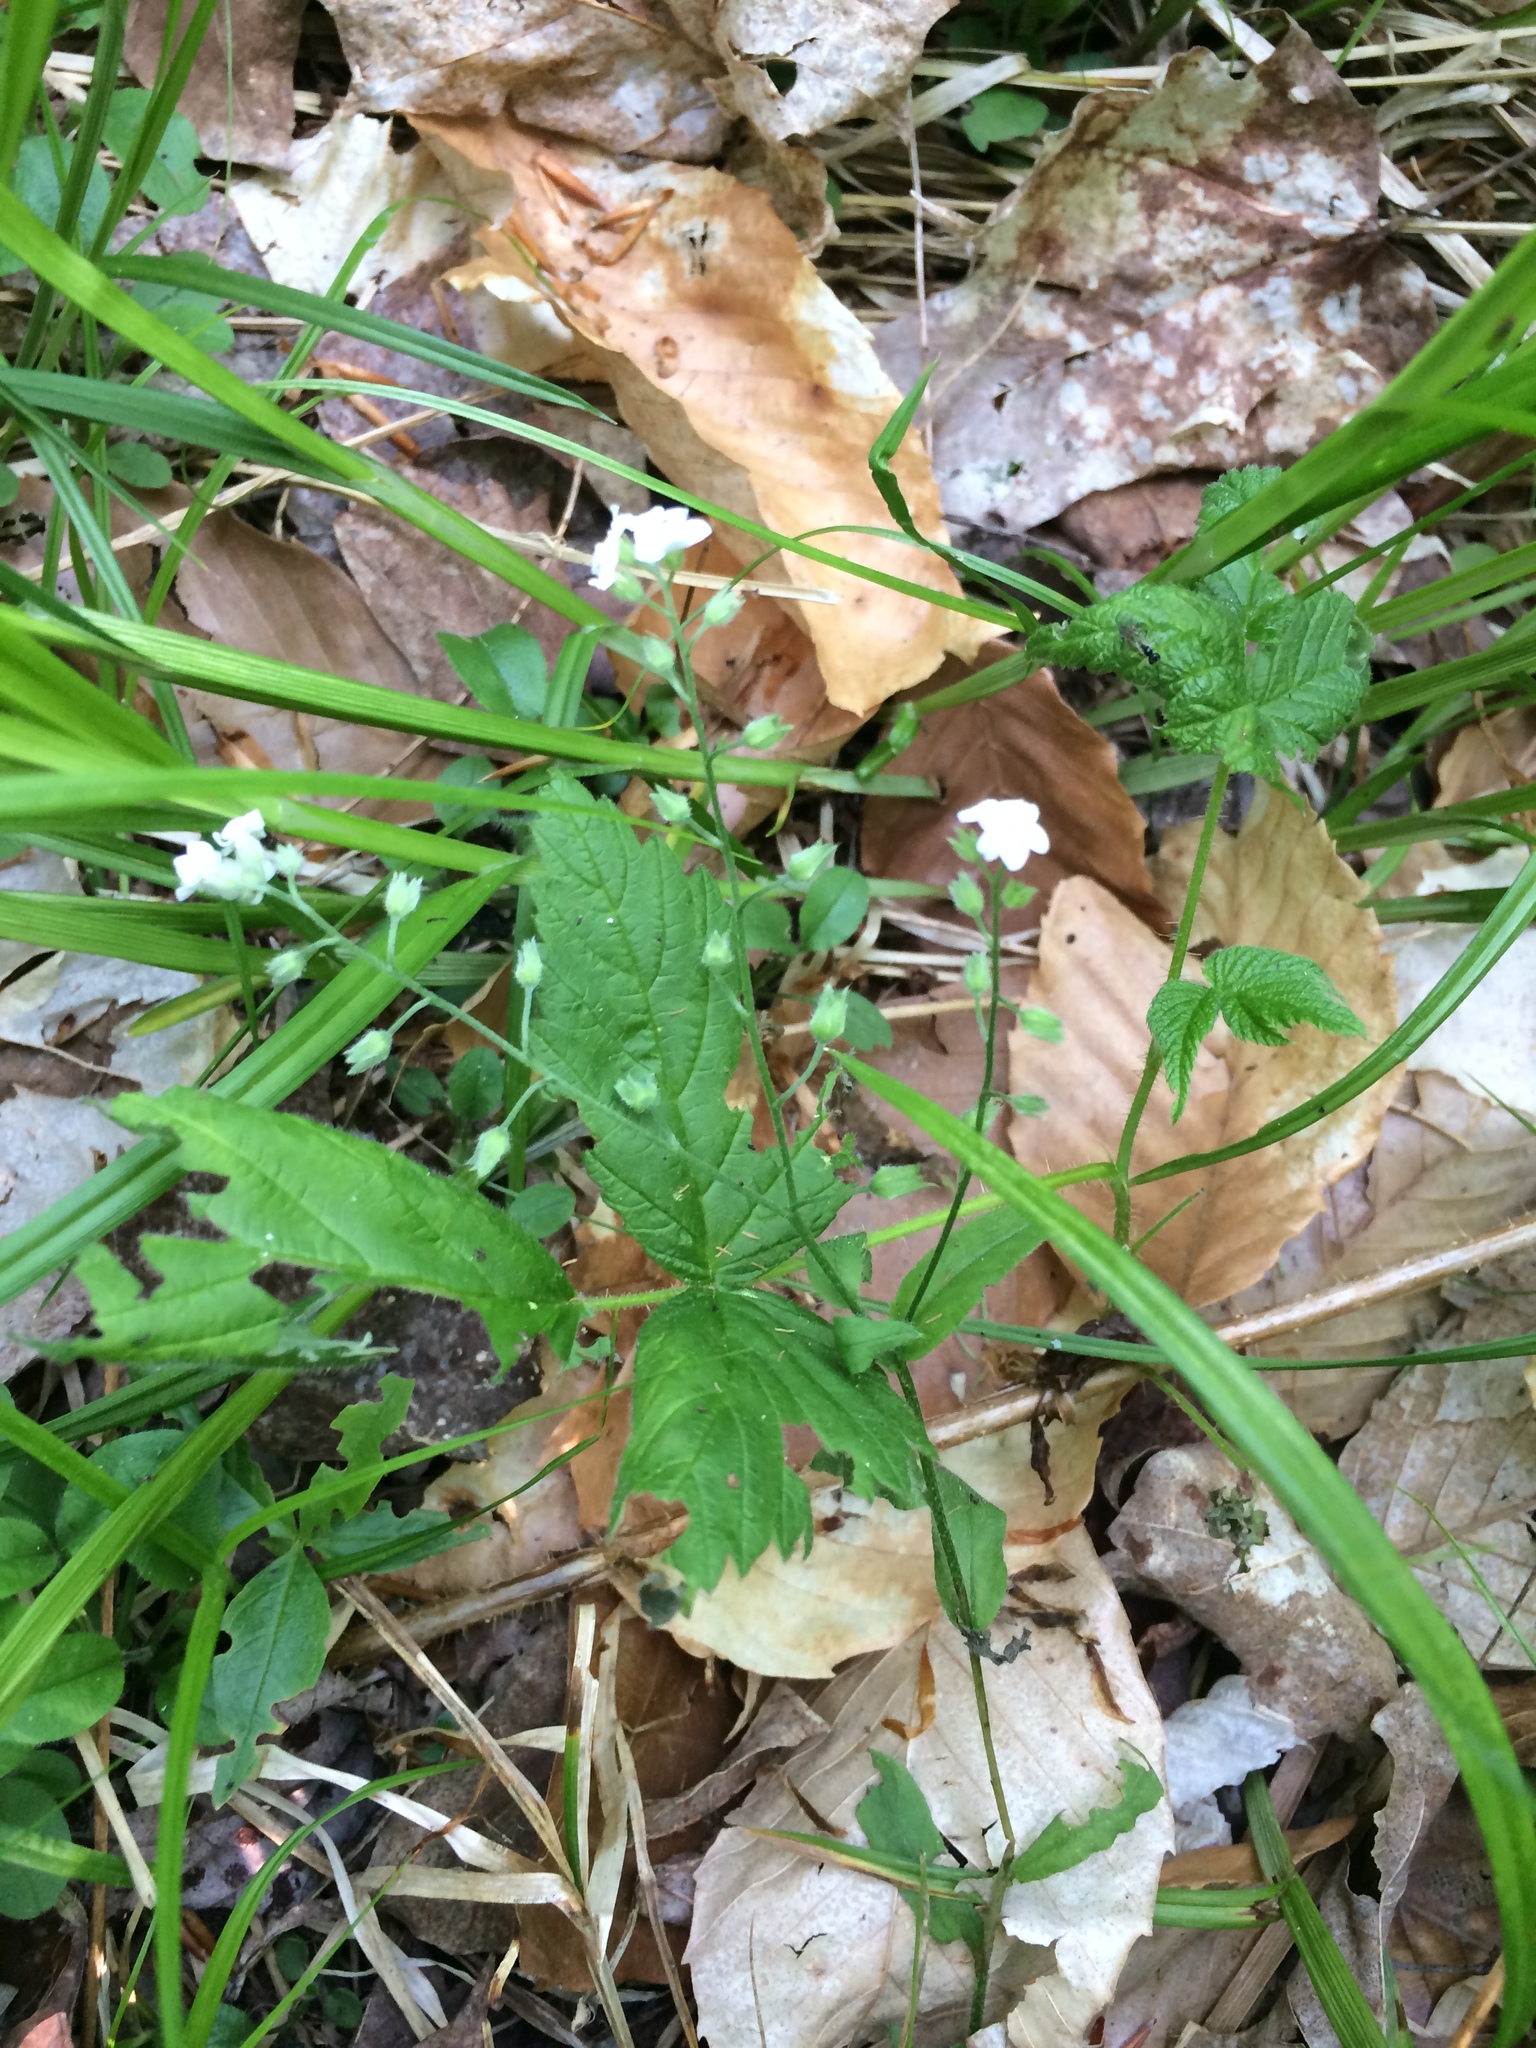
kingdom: Plantae
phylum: Tracheophyta
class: Magnoliopsida
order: Boraginales
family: Boraginaceae
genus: Myosotis
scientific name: Myosotis sylvatica
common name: Wood forget-me-not
